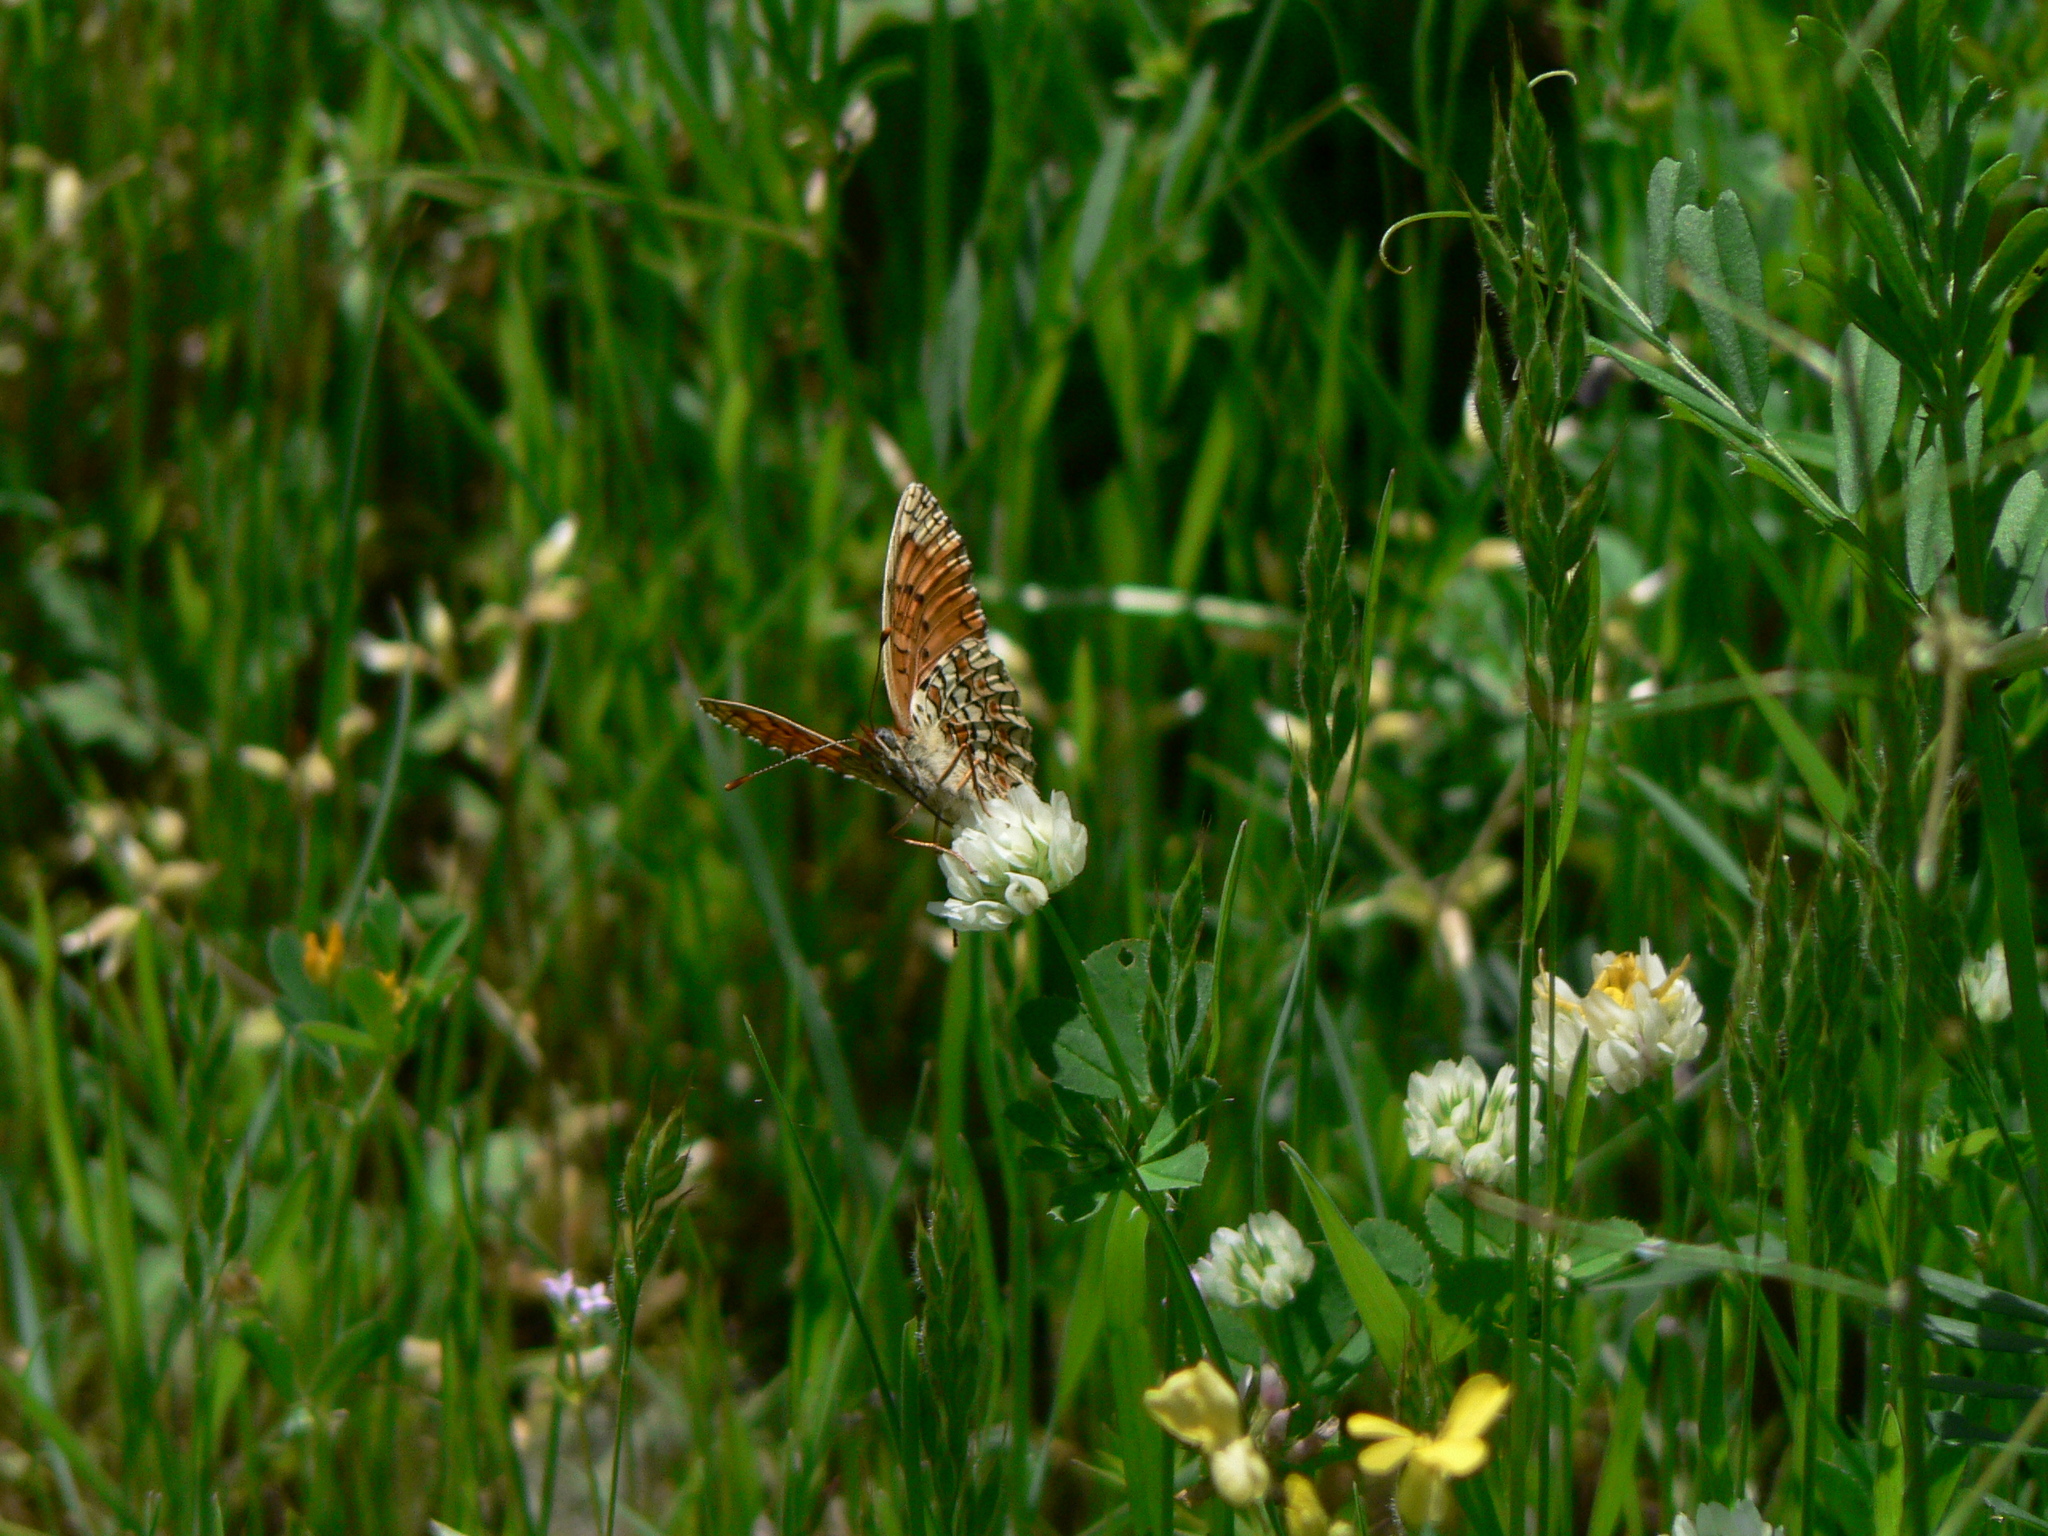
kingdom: Animalia
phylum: Arthropoda
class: Insecta
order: Lepidoptera
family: Nymphalidae
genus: Melitaea
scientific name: Melitaea phoebe
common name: Knapweed fritillary
